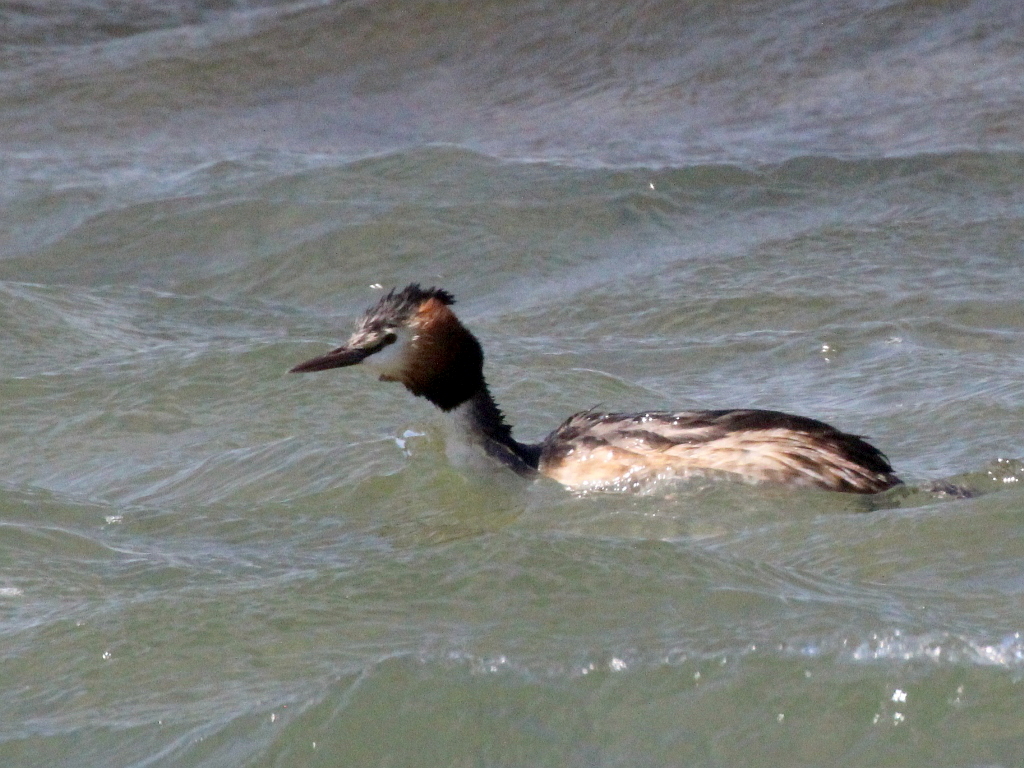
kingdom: Animalia
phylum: Chordata
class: Aves
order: Podicipediformes
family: Podicipedidae
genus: Podiceps
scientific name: Podiceps cristatus
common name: Great crested grebe
